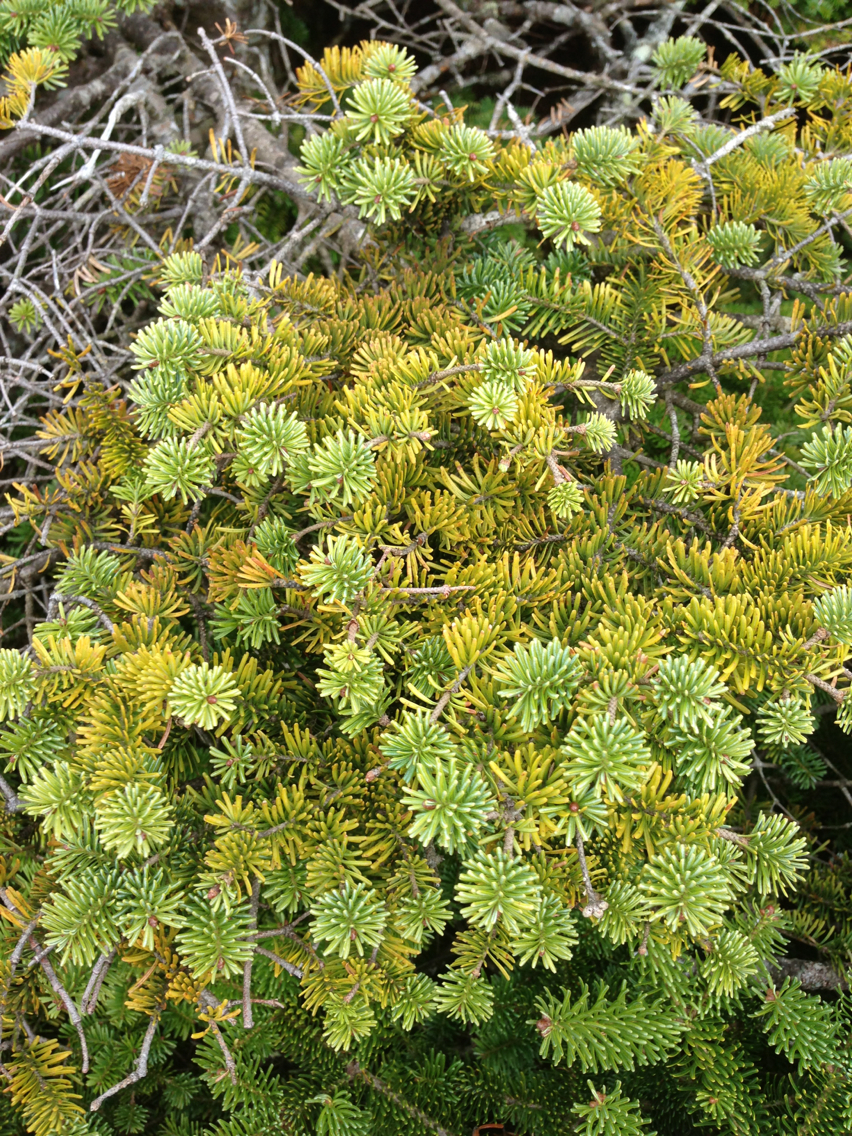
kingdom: Plantae
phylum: Tracheophyta
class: Pinopsida
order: Pinales
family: Pinaceae
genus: Abies
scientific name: Abies balsamea
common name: Balsam fir
